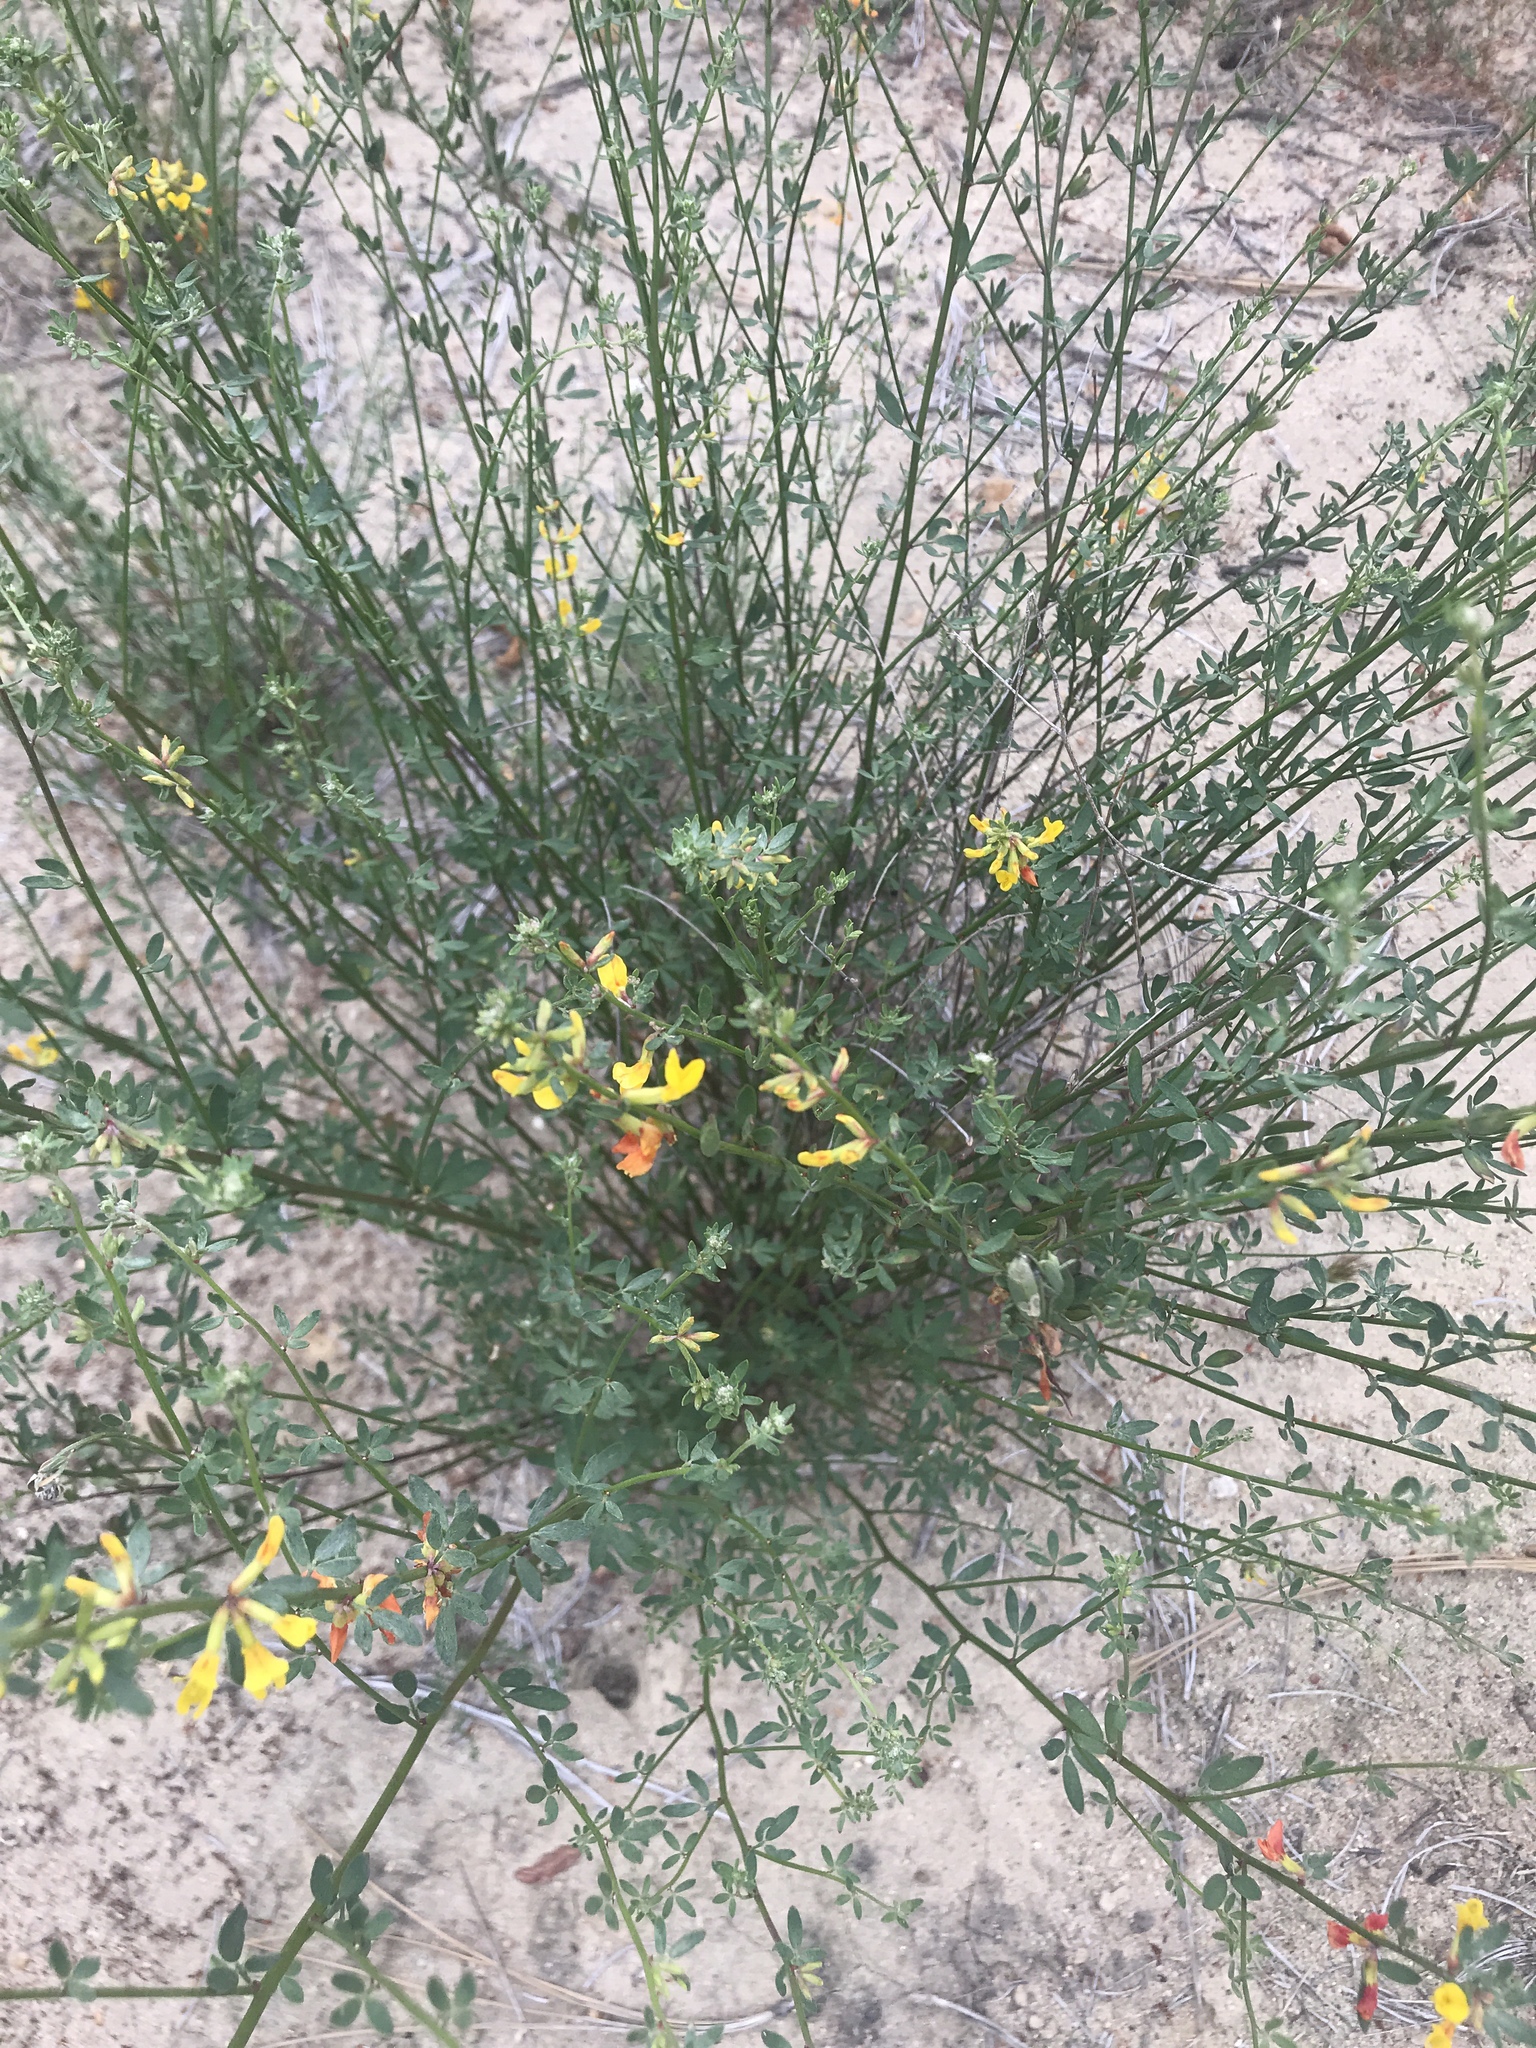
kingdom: Plantae
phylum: Tracheophyta
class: Magnoliopsida
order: Fabales
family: Fabaceae
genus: Acmispon
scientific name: Acmispon glaber
